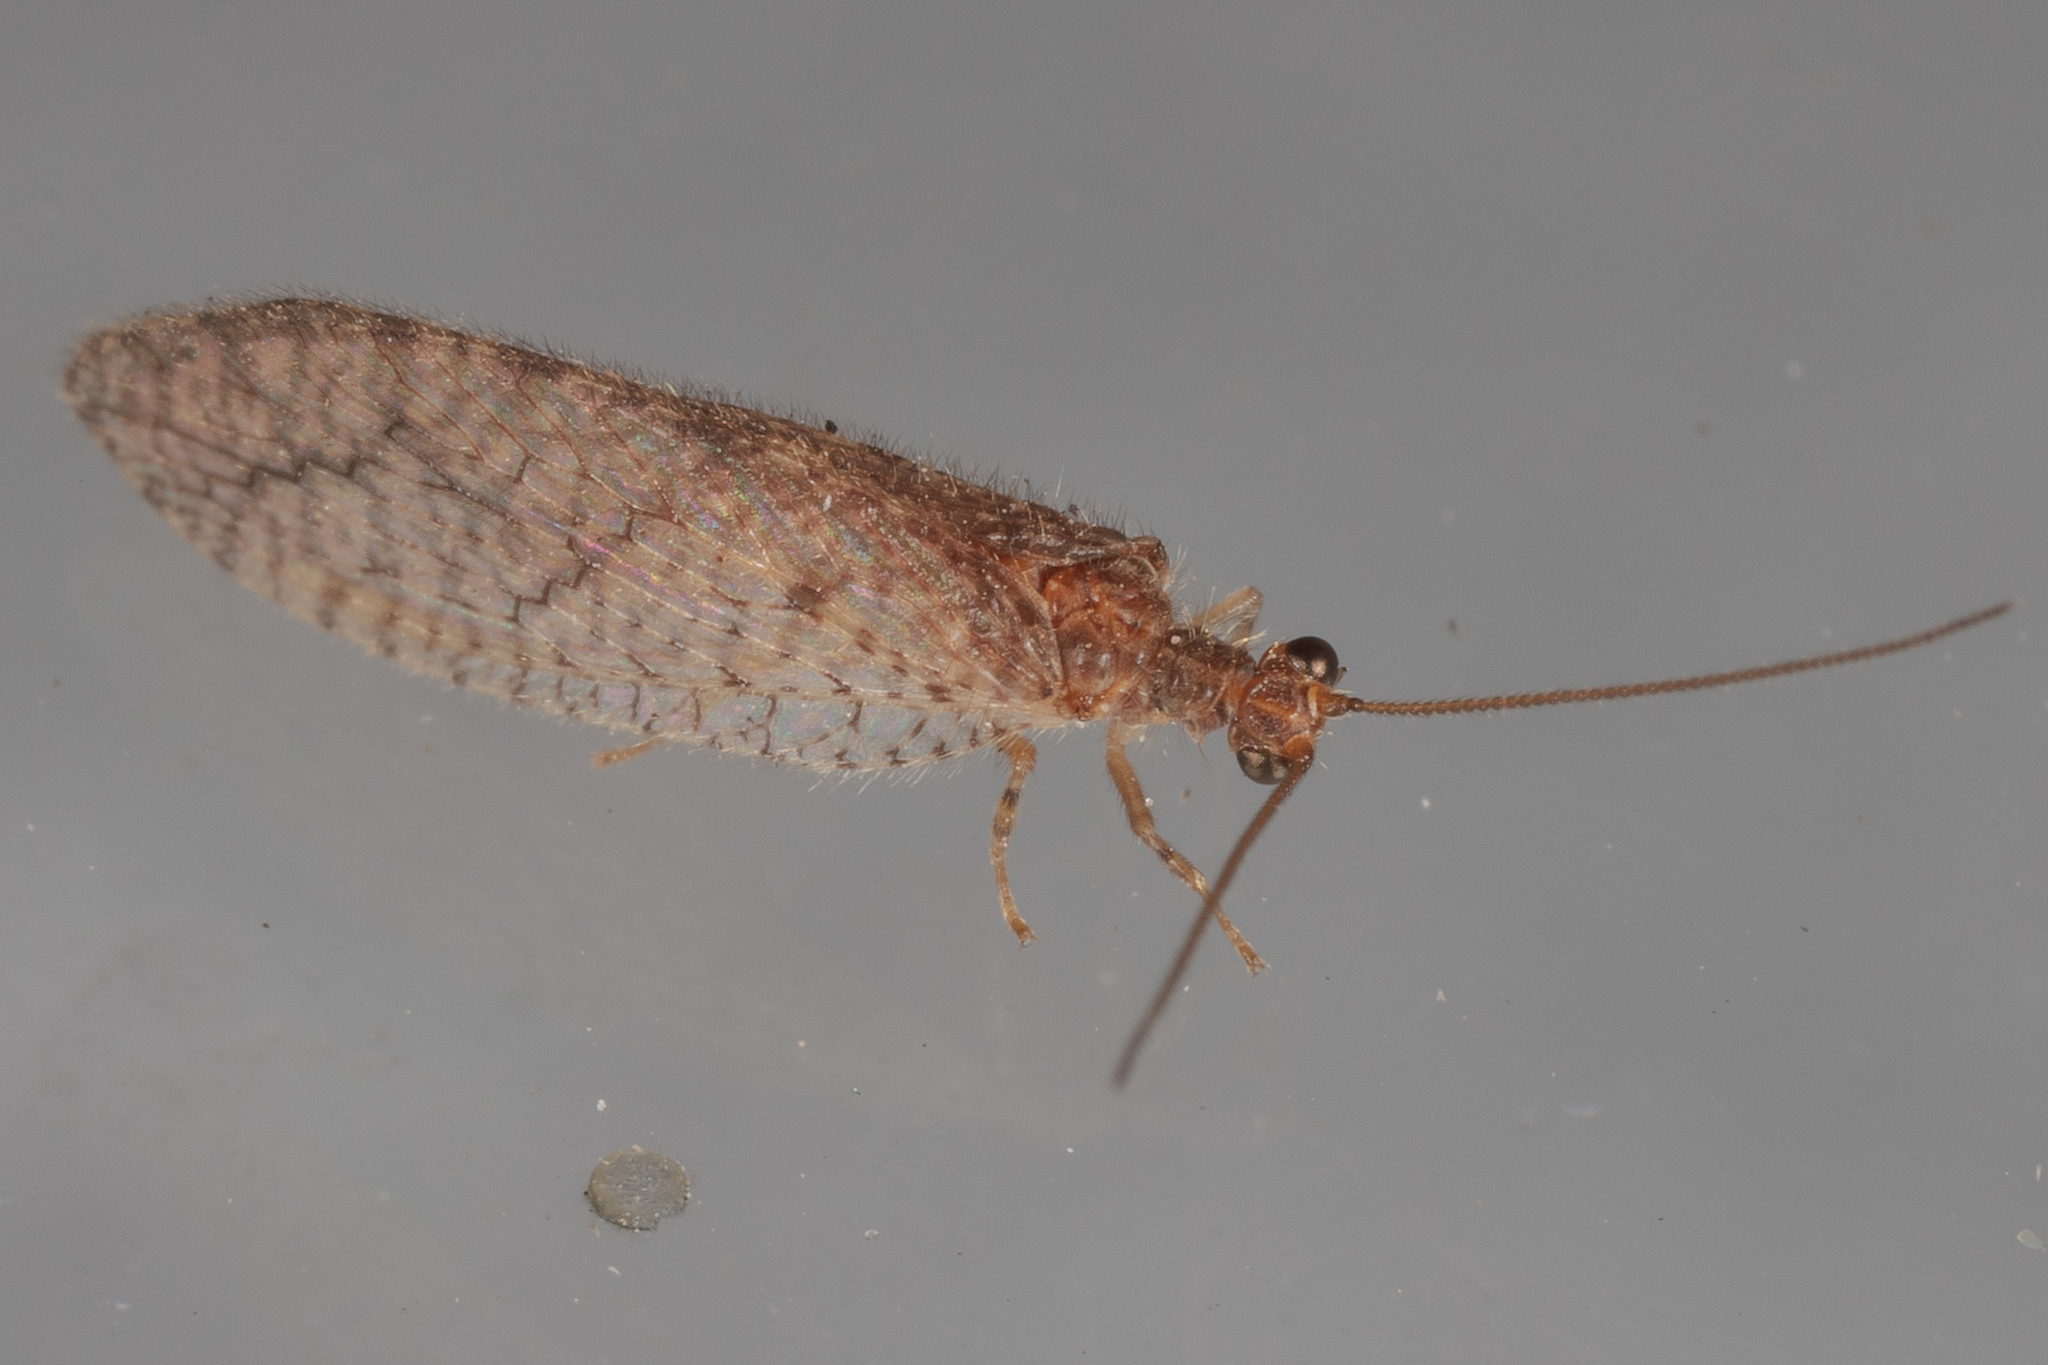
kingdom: Animalia
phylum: Arthropoda
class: Insecta
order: Neuroptera
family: Hemerobiidae
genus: Micromus
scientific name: Micromus posticus
